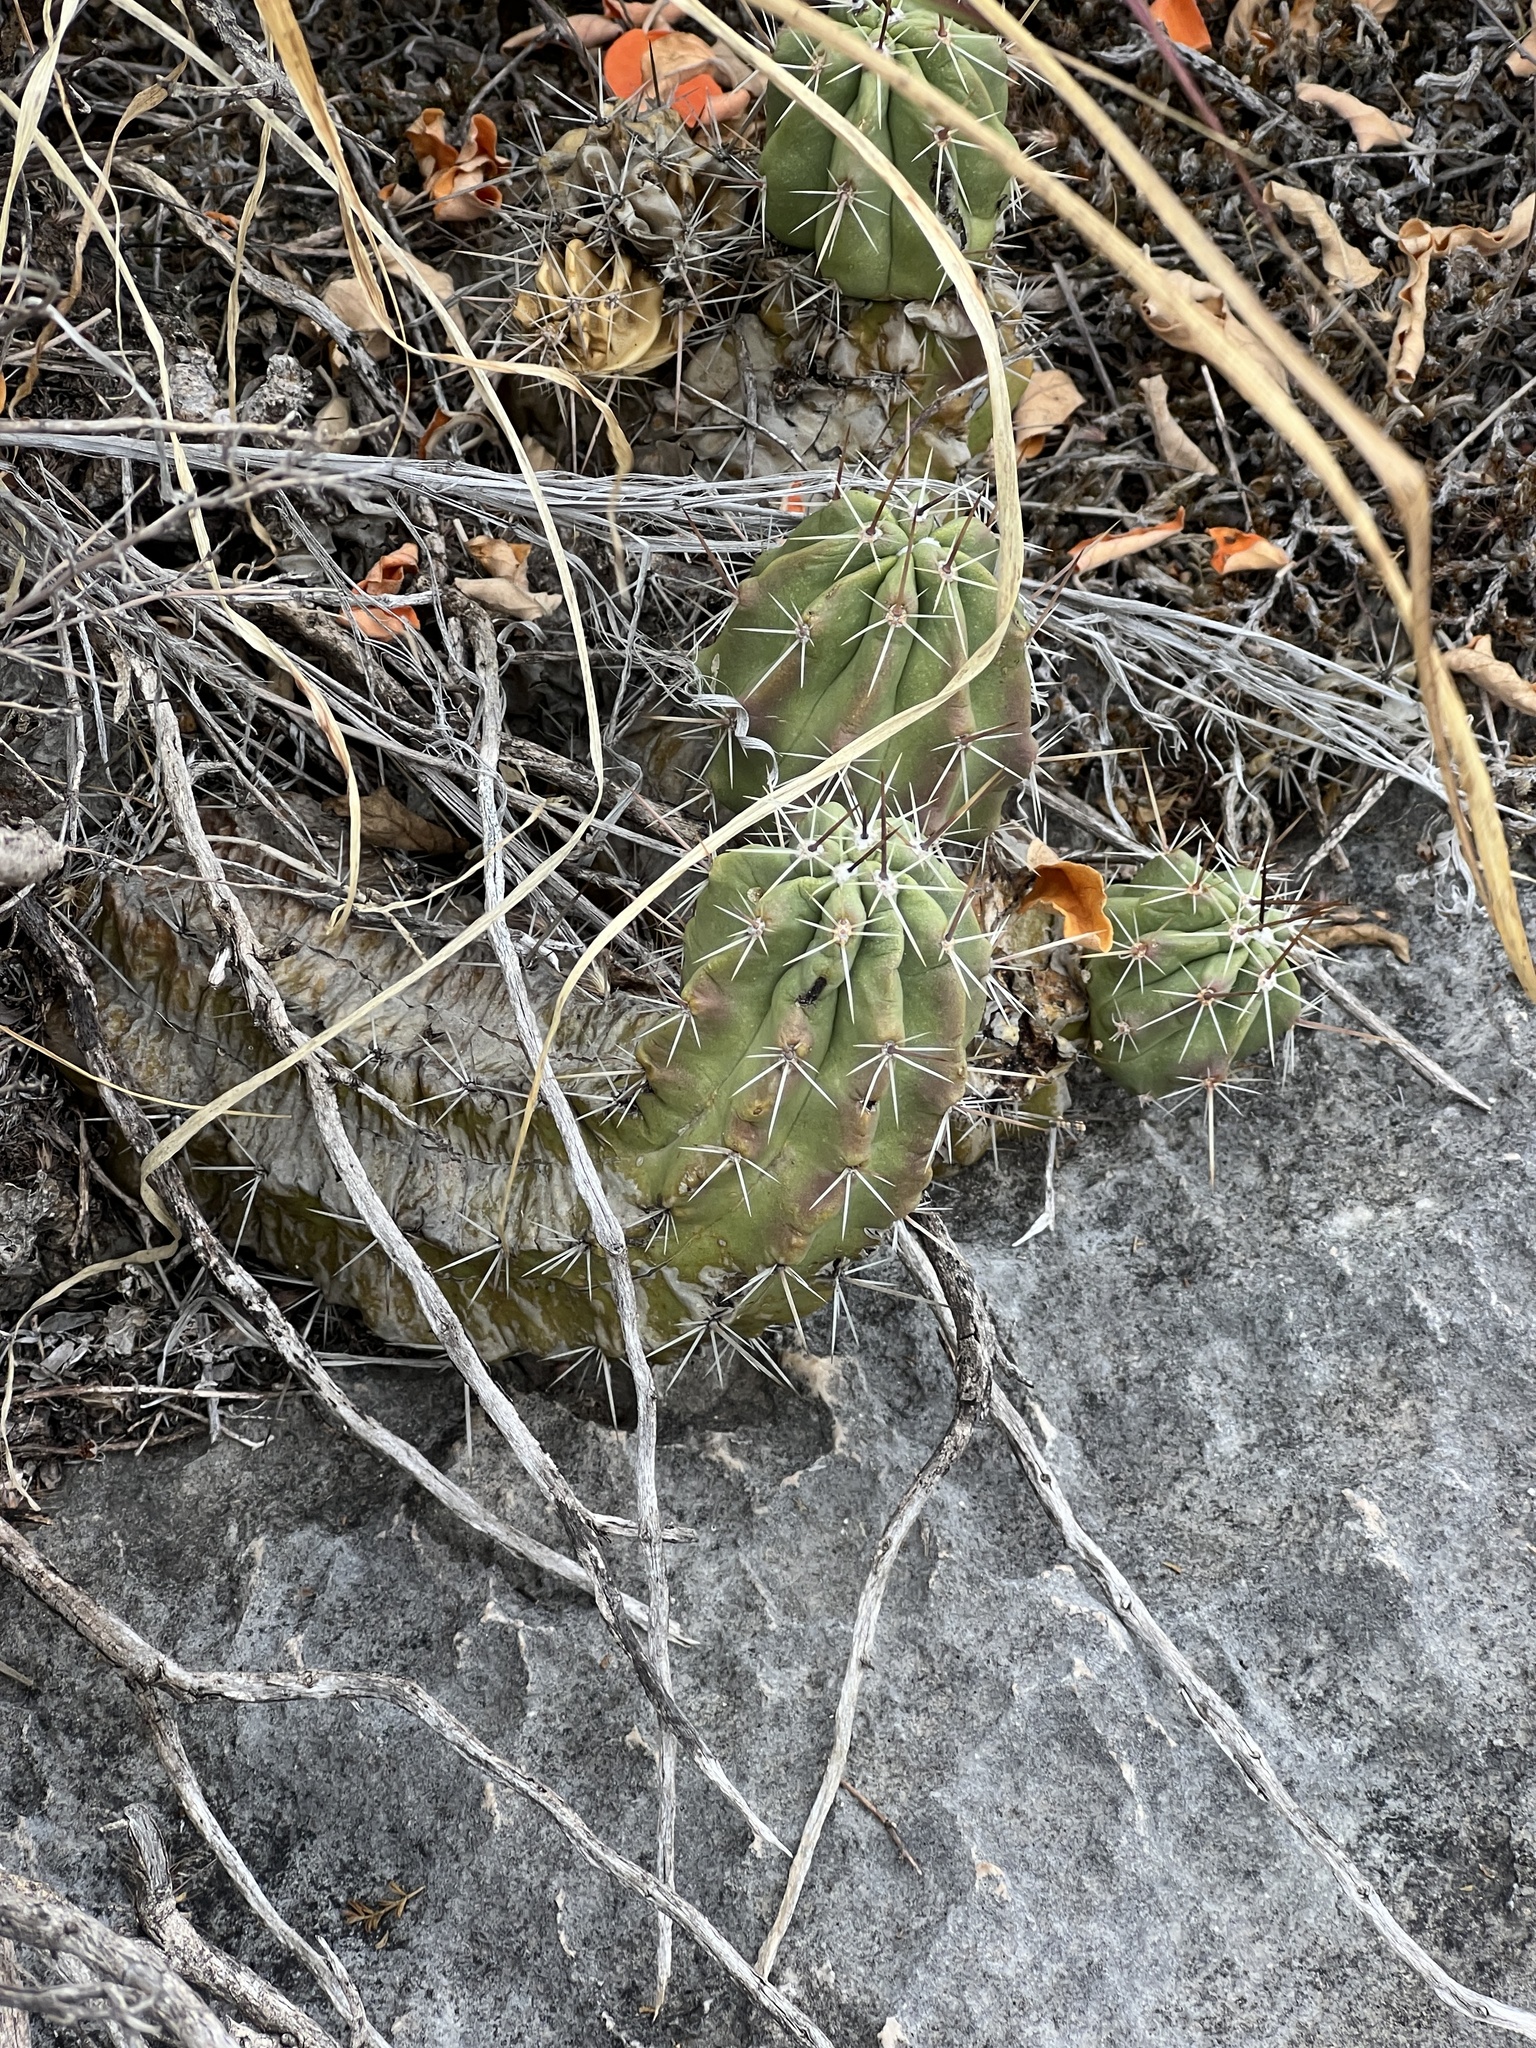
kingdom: Plantae
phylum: Tracheophyta
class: Magnoliopsida
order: Caryophyllales
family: Cactaceae
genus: Echinocereus
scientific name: Echinocereus enneacanthus
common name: Pitaya
